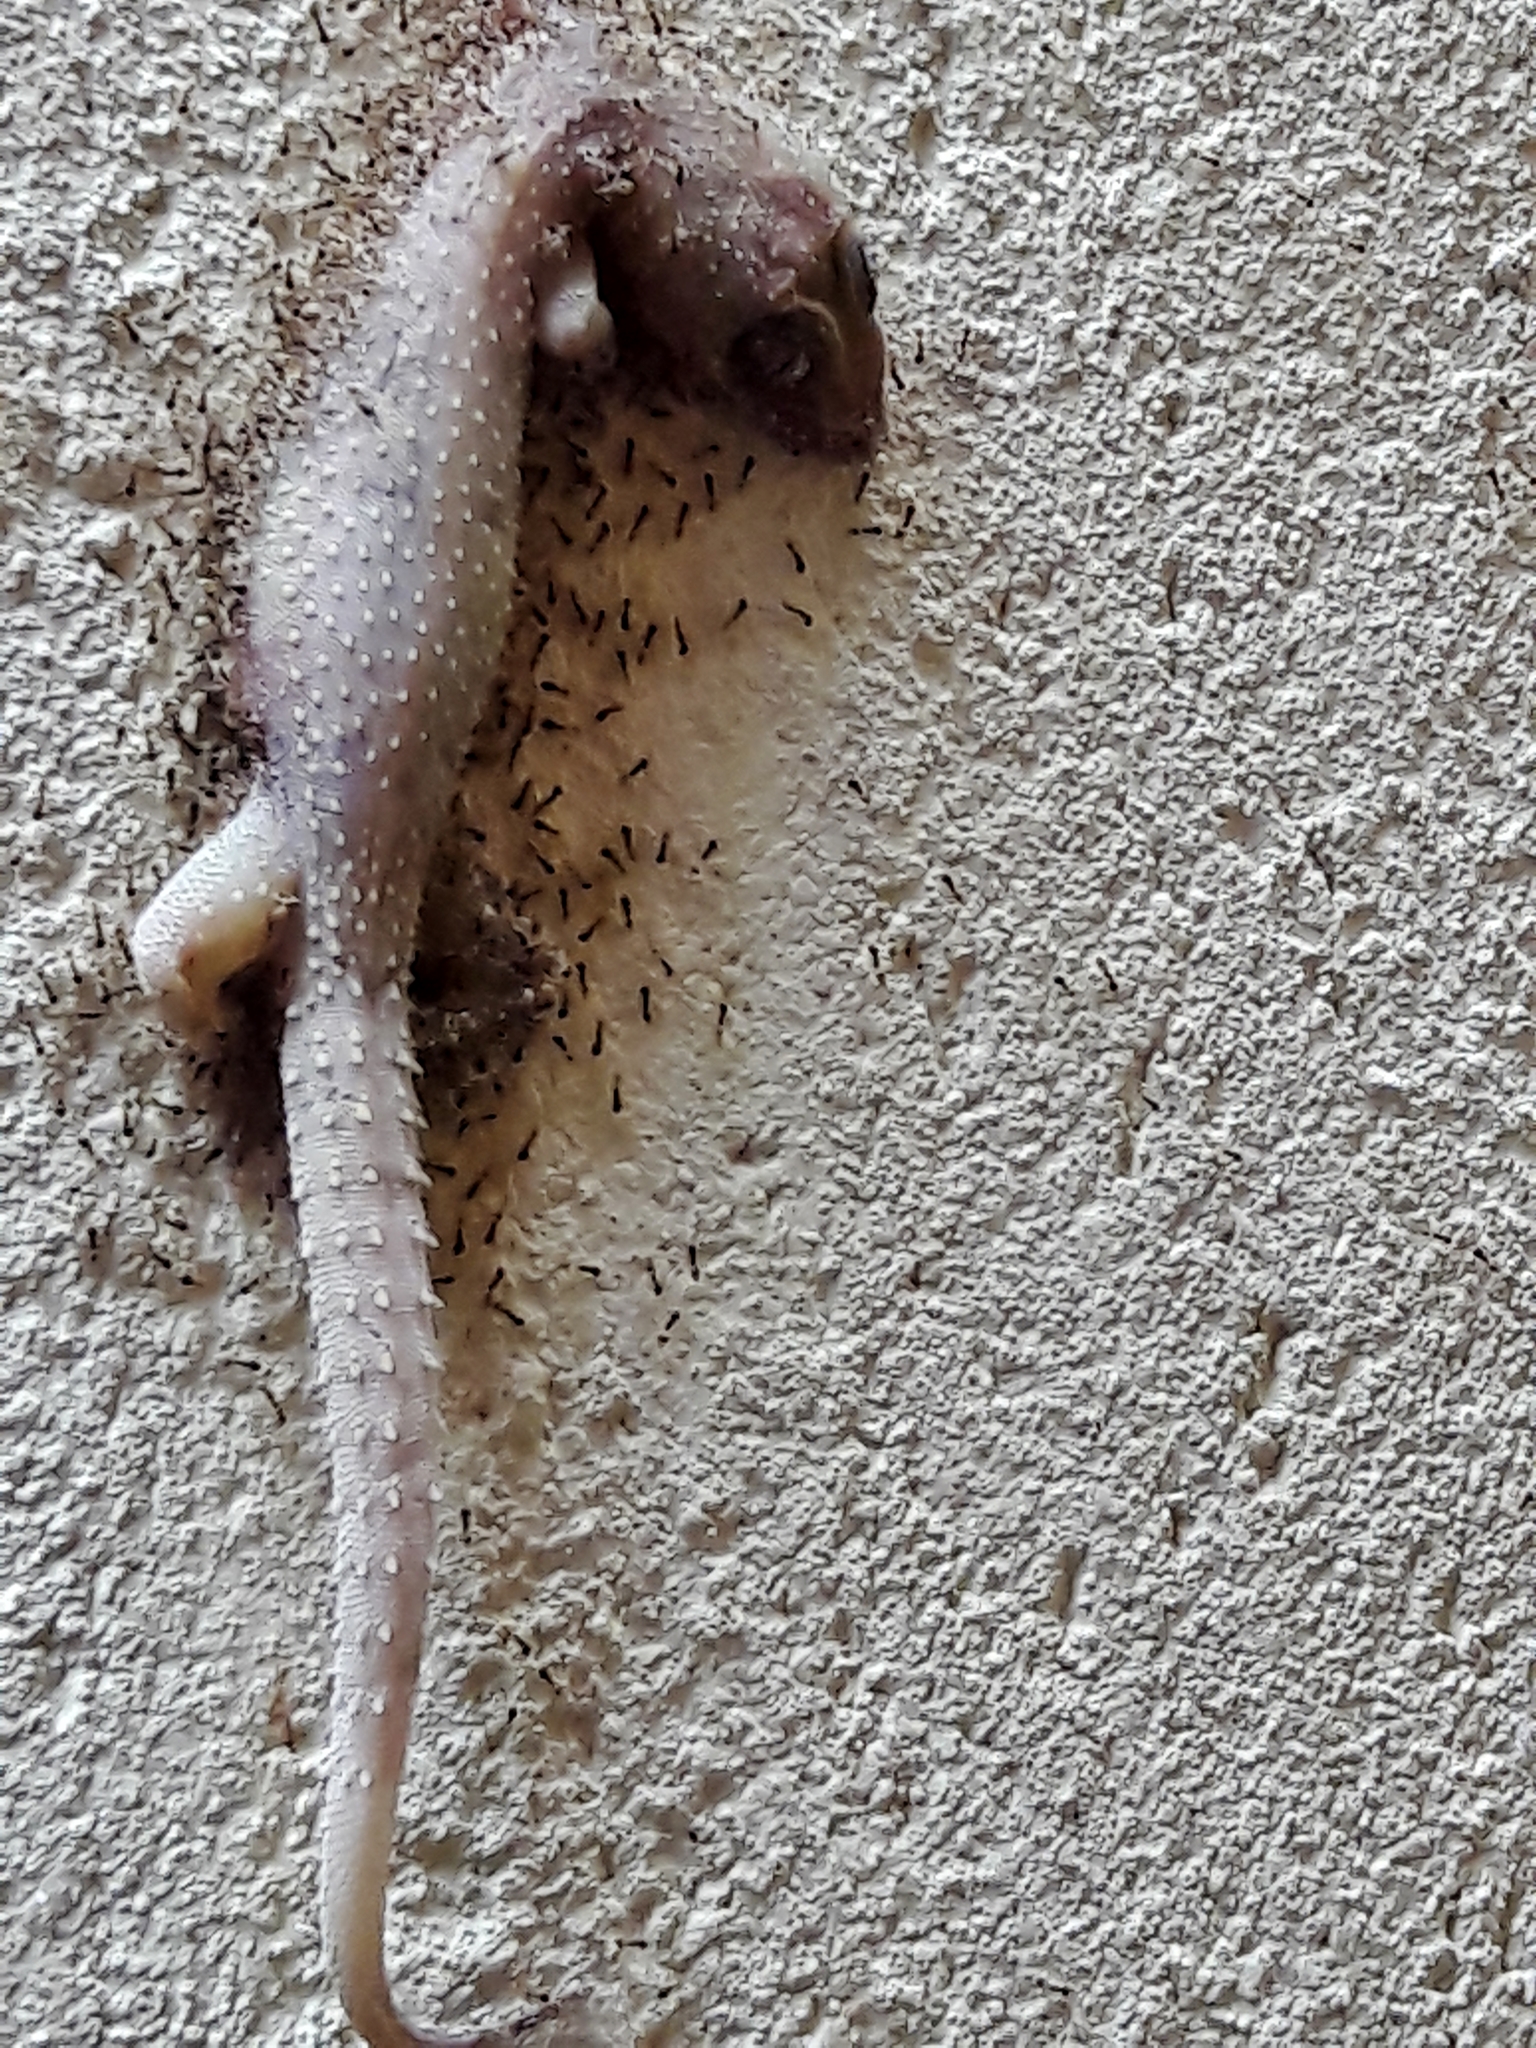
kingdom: Animalia
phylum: Chordata
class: Squamata
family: Gekkonidae
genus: Hemidactylus
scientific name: Hemidactylus mabouia
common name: House gecko
